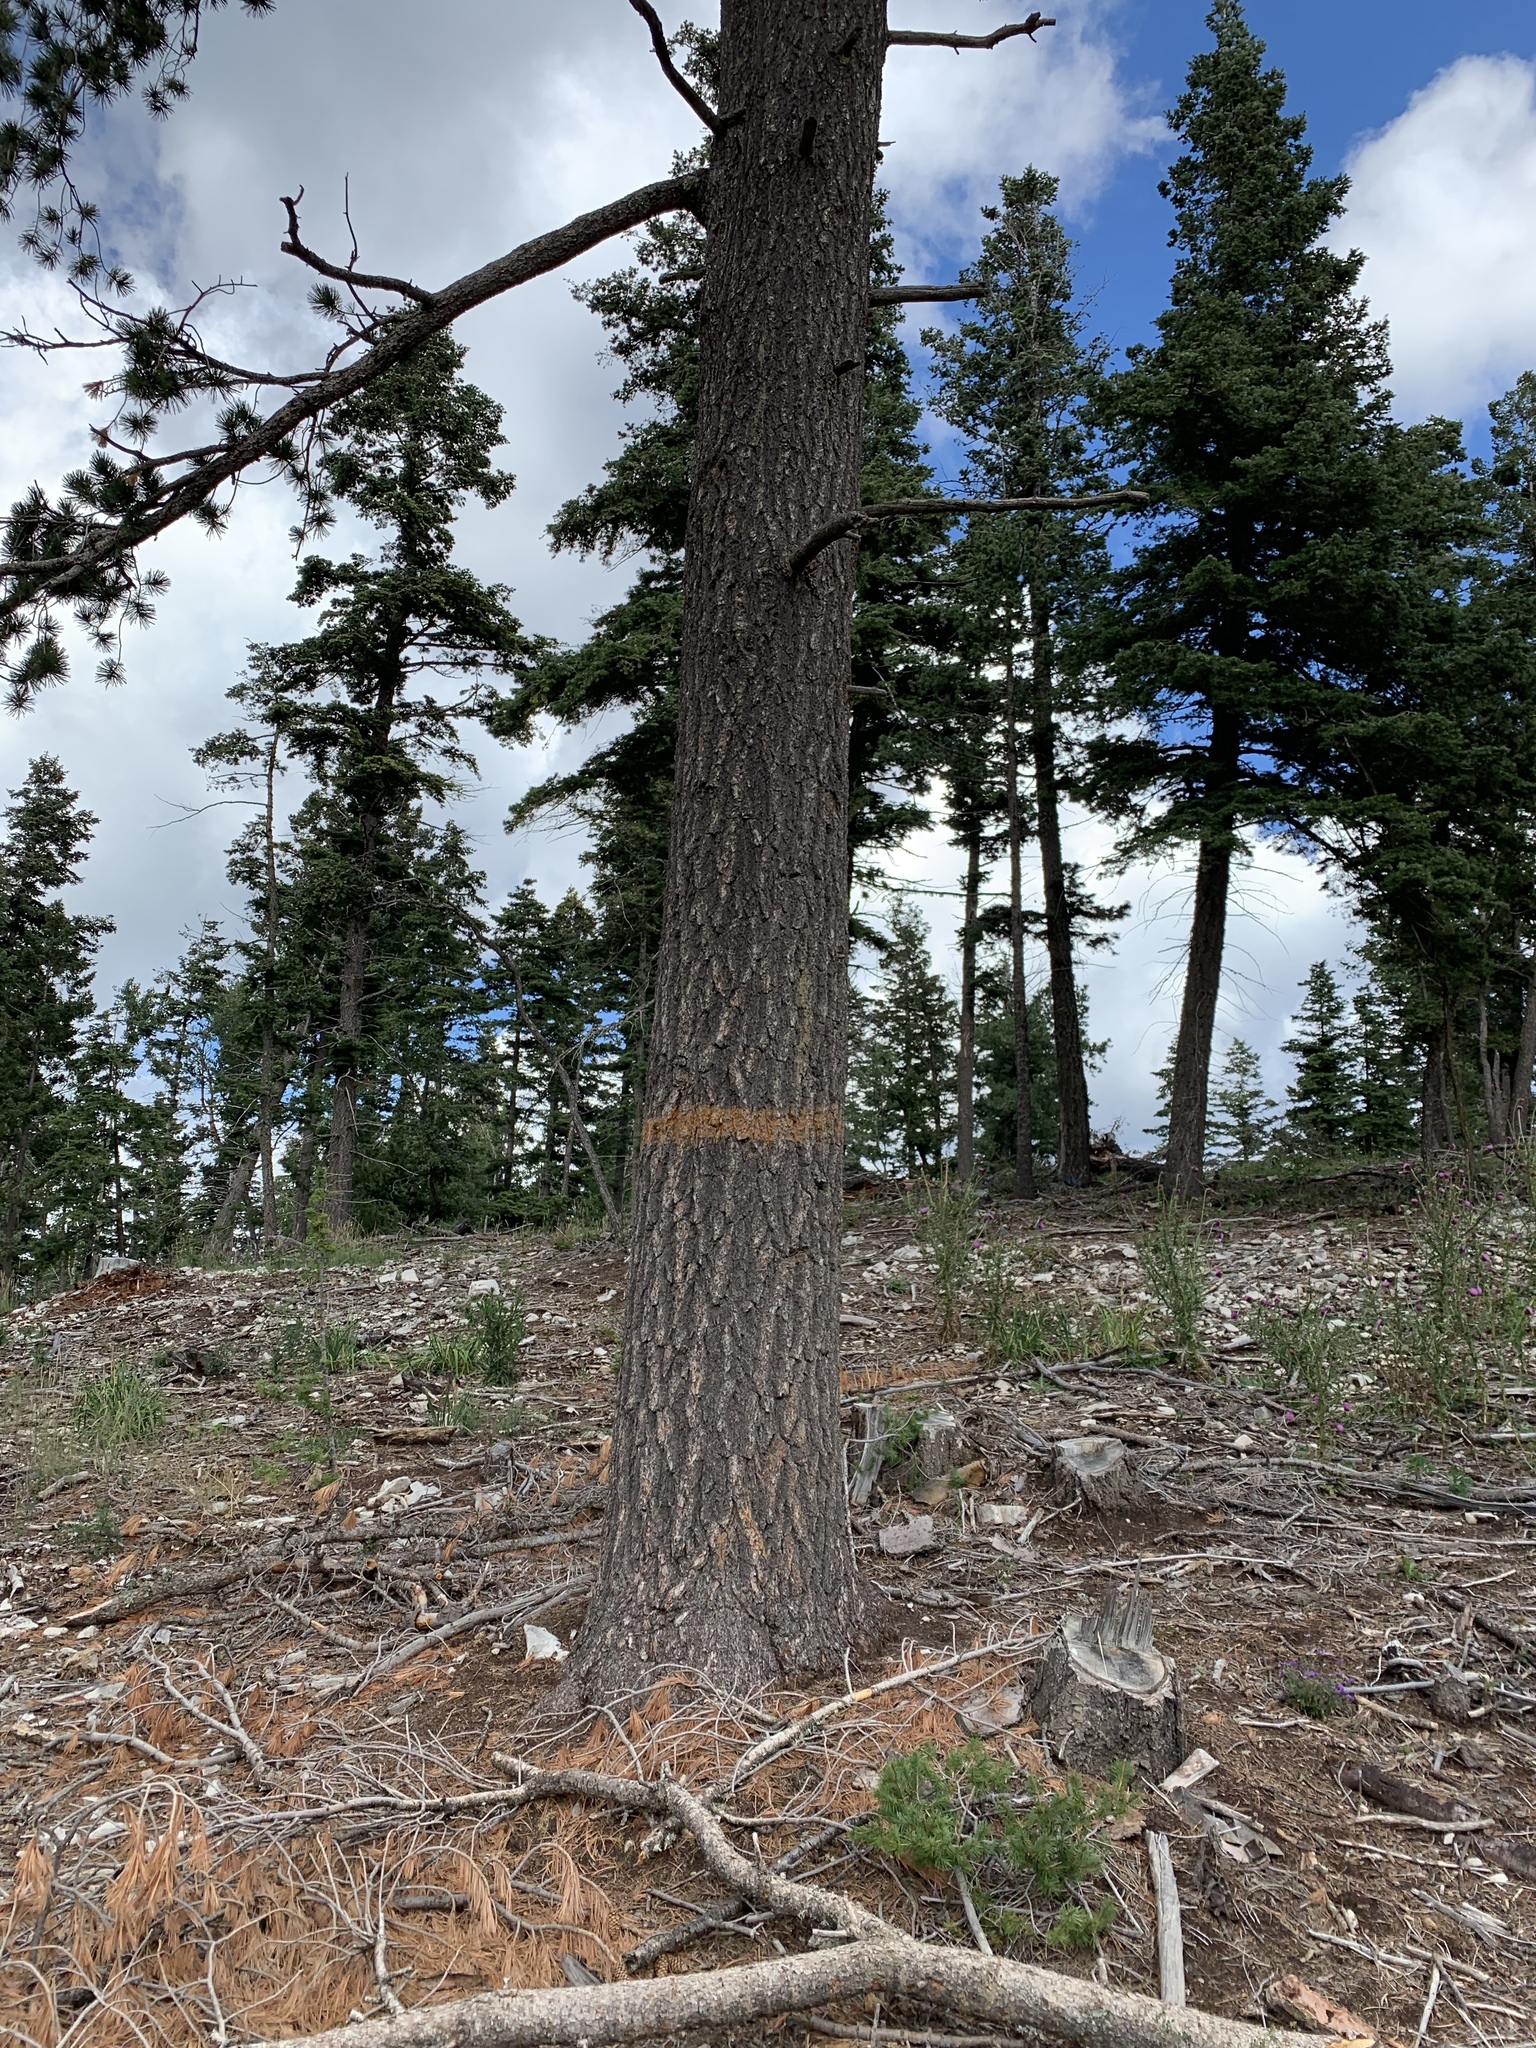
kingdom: Plantae
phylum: Tracheophyta
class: Pinopsida
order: Pinales
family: Pinaceae
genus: Pinus
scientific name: Pinus strobiformis
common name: Southwestern white pine
